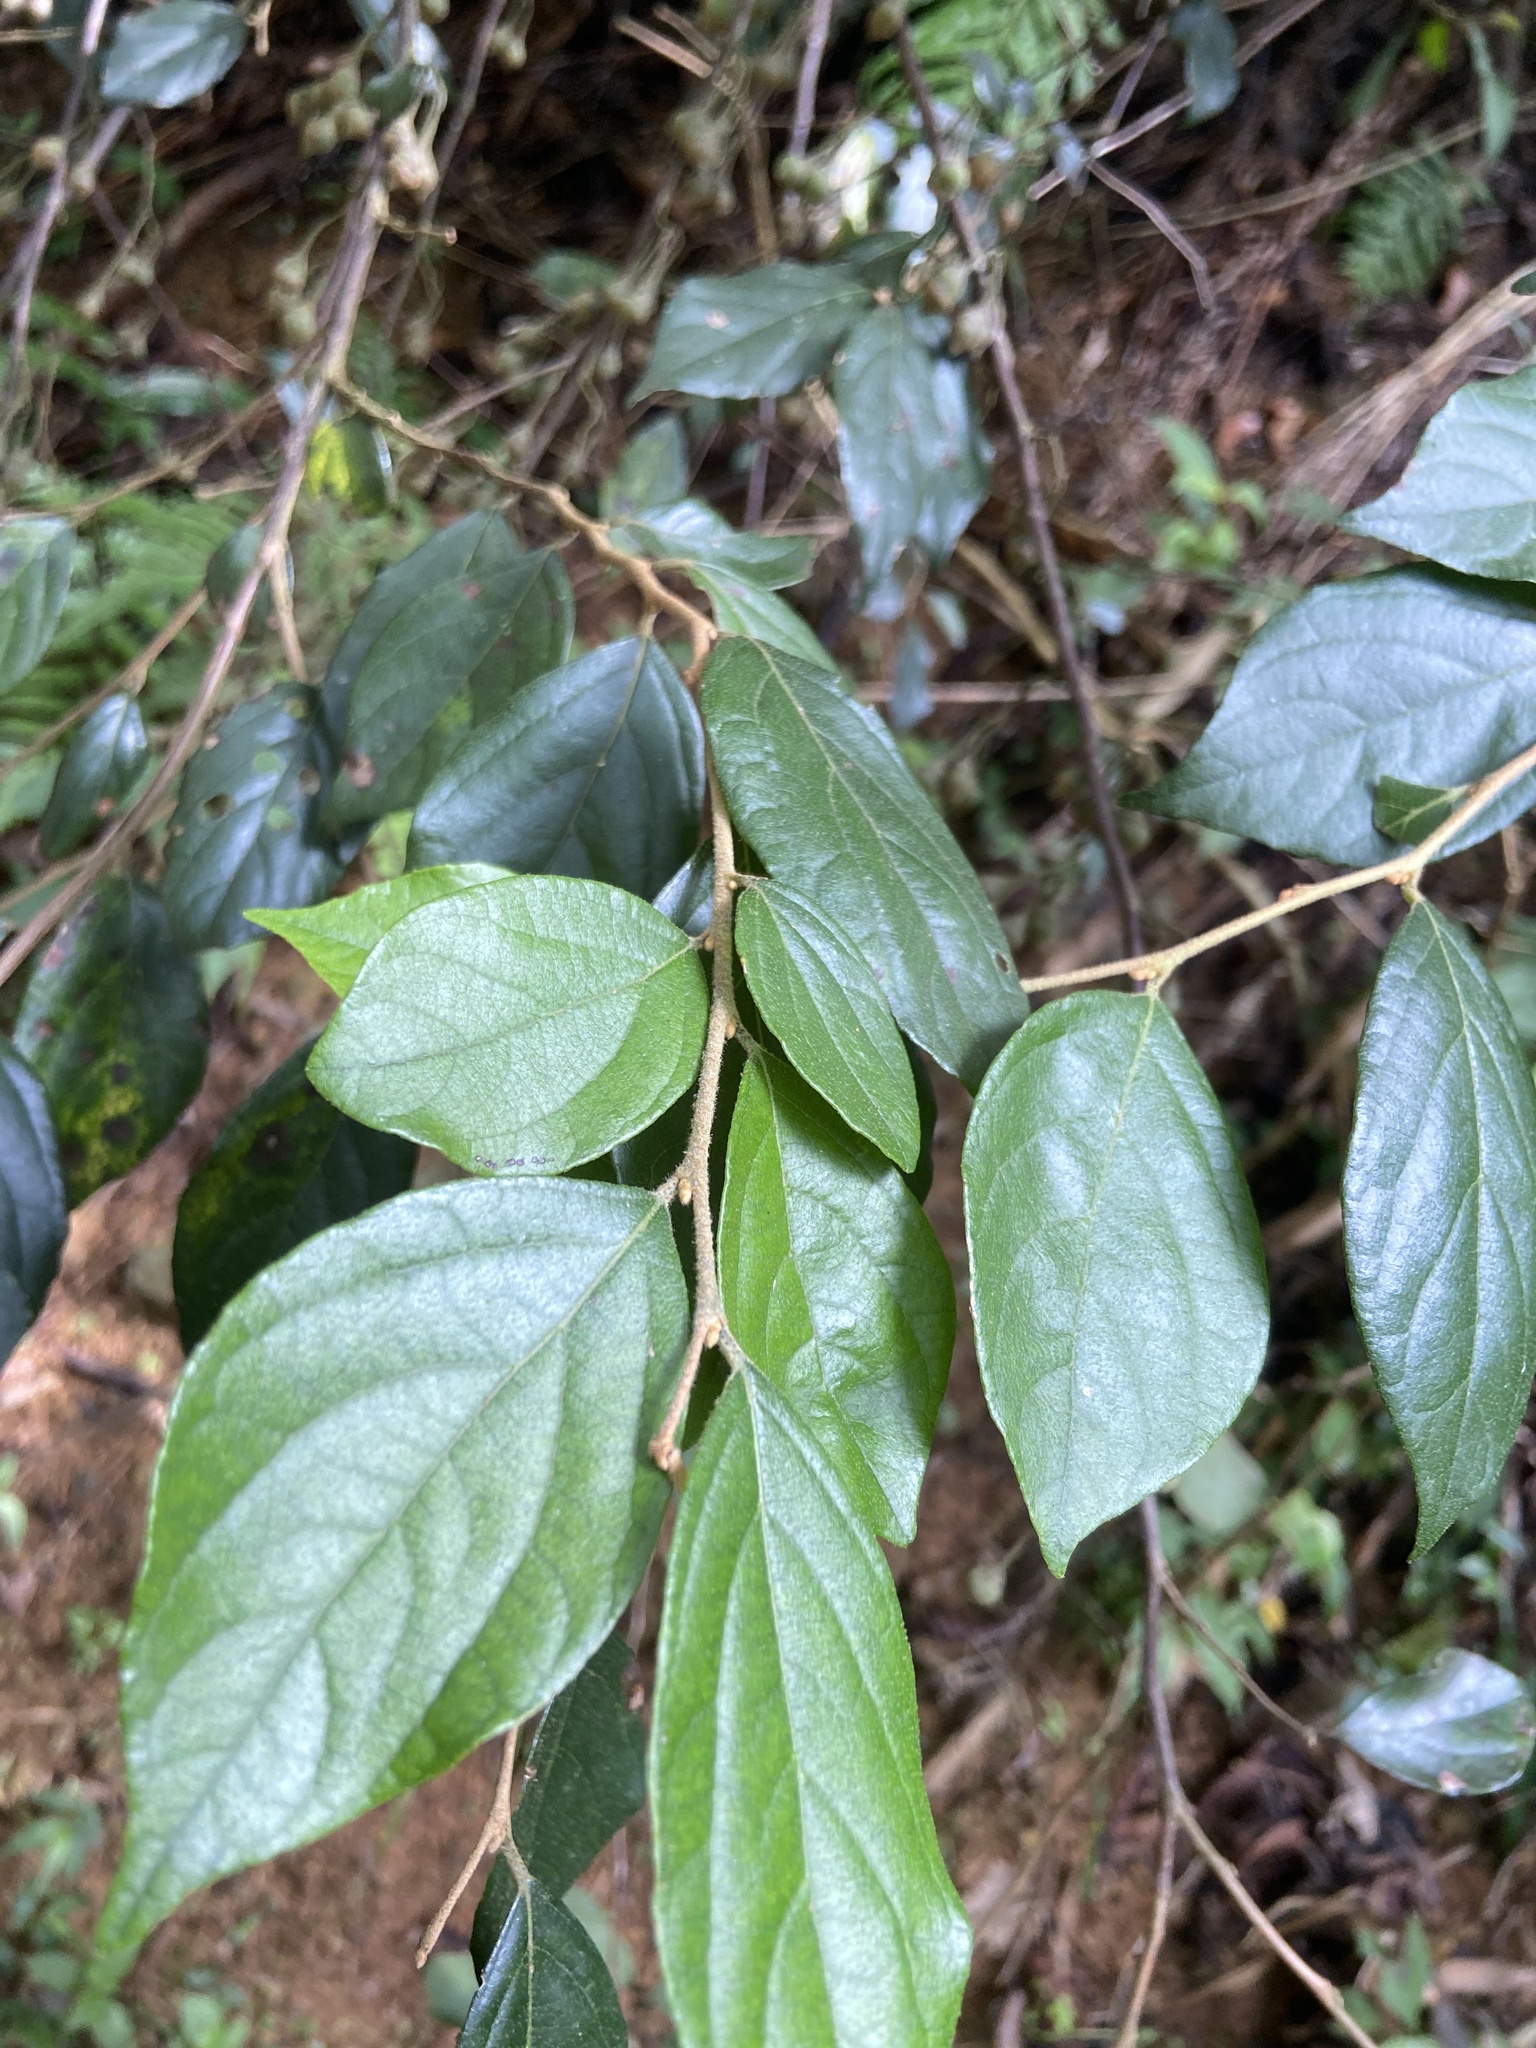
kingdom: Plantae
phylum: Tracheophyta
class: Magnoliopsida
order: Ericales
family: Styracaceae
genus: Styrax
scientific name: Styrax formosanus
